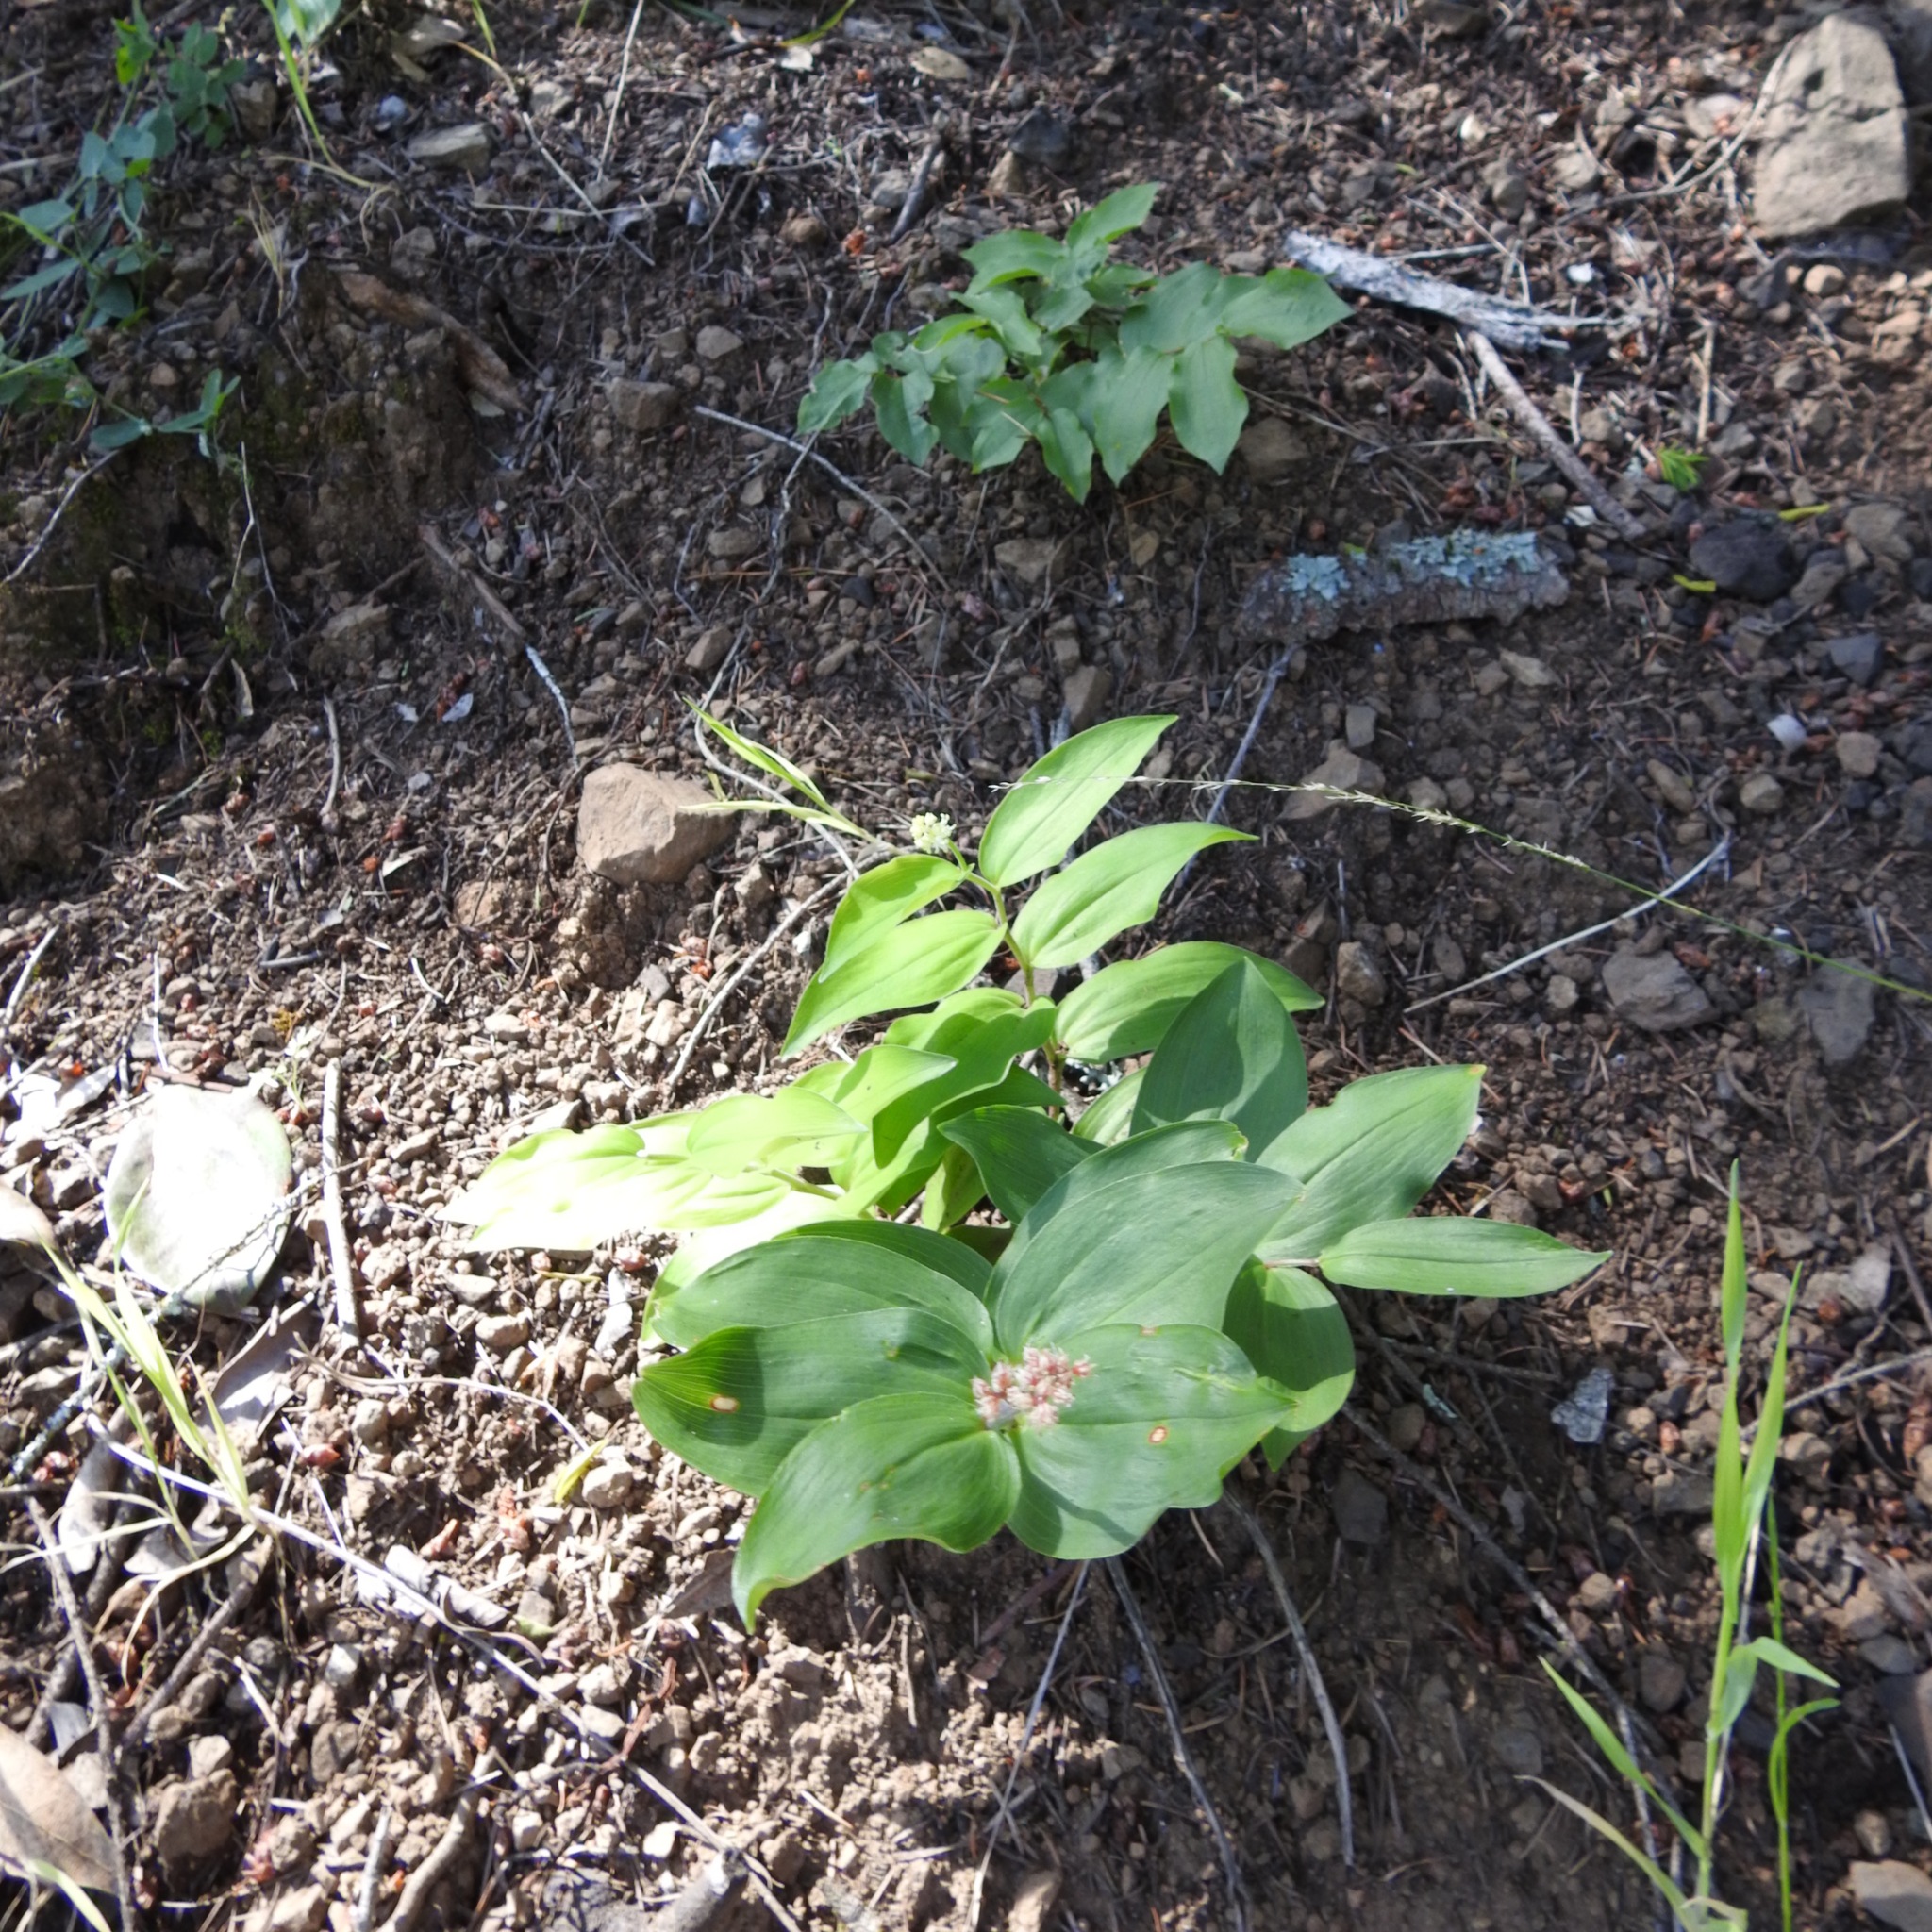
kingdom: Plantae
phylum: Tracheophyta
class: Liliopsida
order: Asparagales
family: Asparagaceae
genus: Maianthemum
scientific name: Maianthemum racemosum
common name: False spikenard
